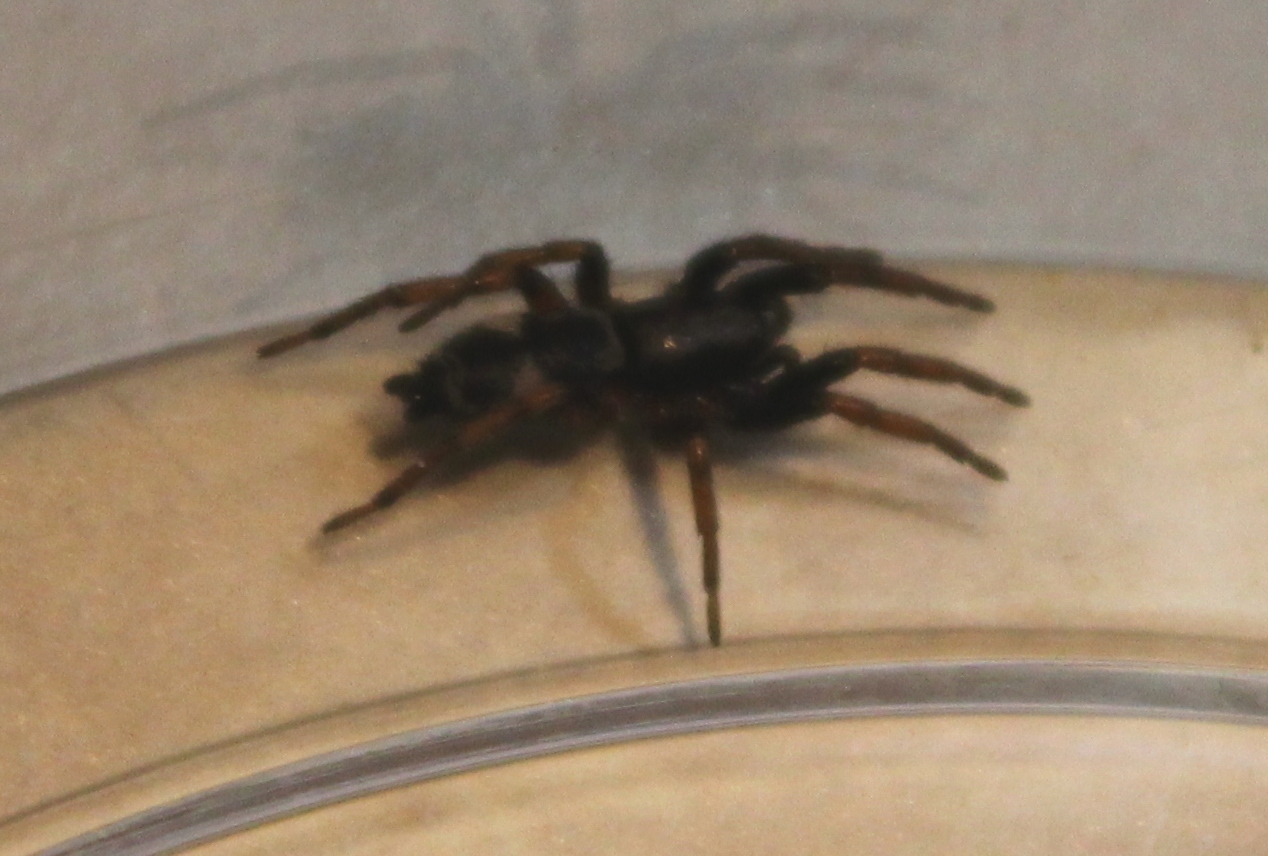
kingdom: Animalia
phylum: Arthropoda
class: Arachnida
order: Araneae
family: Gnaphosidae
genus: Sergiolus
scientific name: Sergiolus montanus
